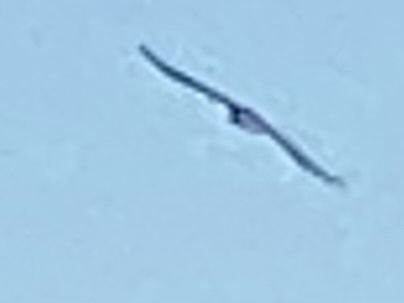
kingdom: Animalia
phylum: Chordata
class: Aves
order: Falconiformes
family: Falconidae
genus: Caracara
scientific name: Caracara plancus
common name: Southern caracara
